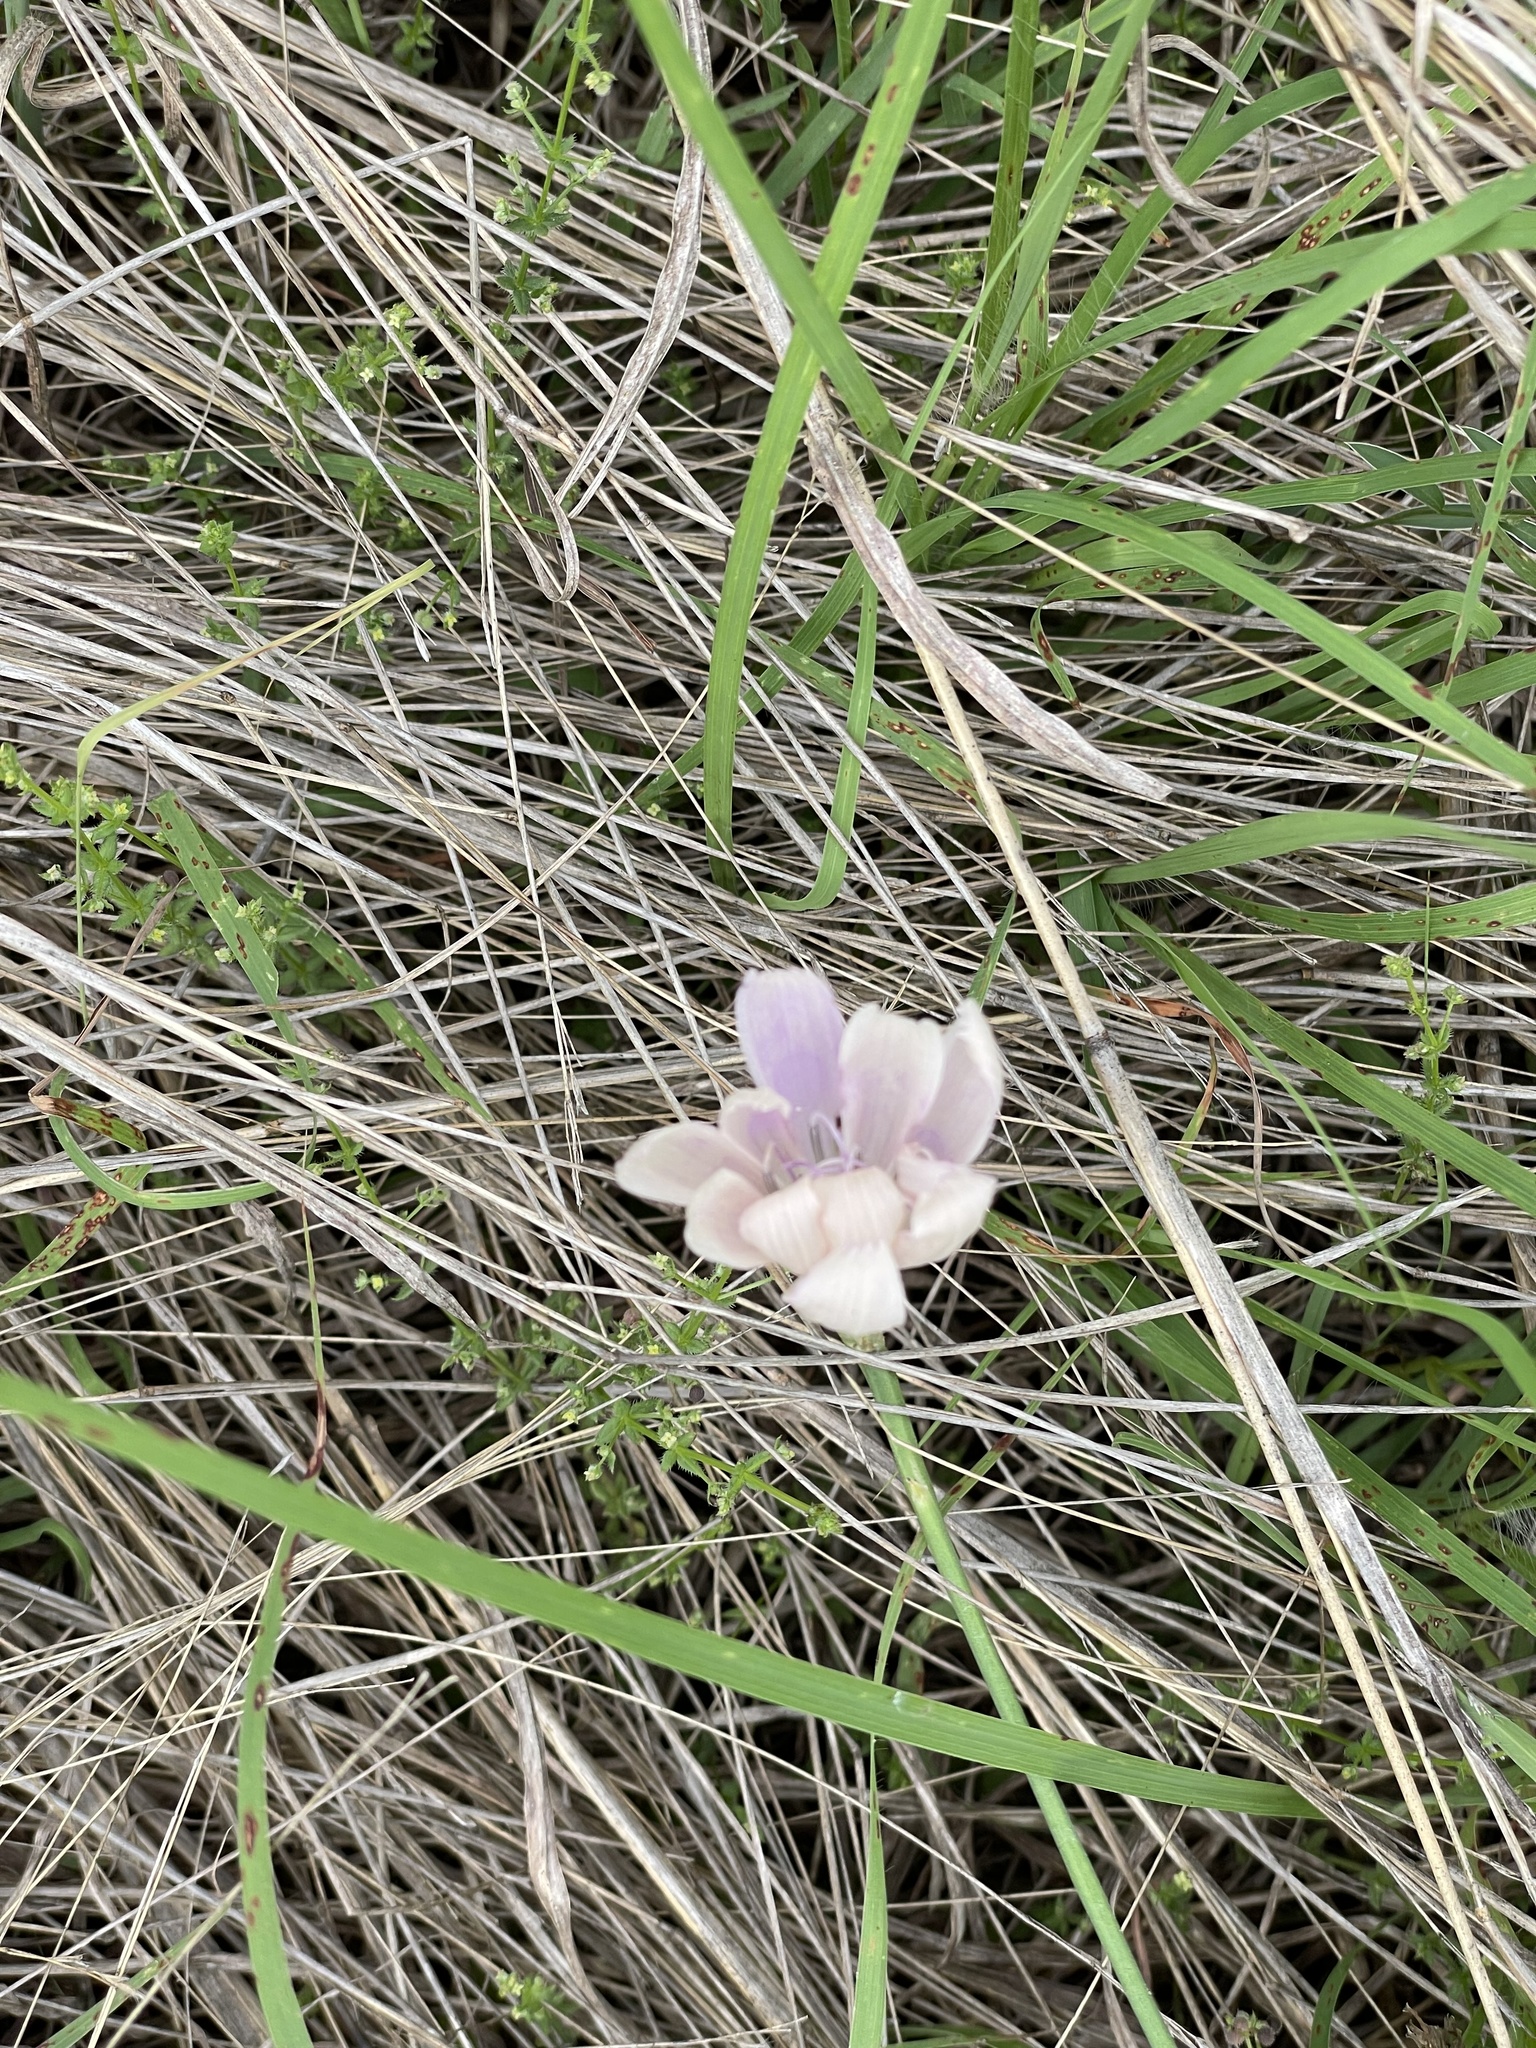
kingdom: Plantae
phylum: Tracheophyta
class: Magnoliopsida
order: Asterales
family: Asteraceae
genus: Lygodesmia
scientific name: Lygodesmia texana
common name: Texas skeleton-plant
